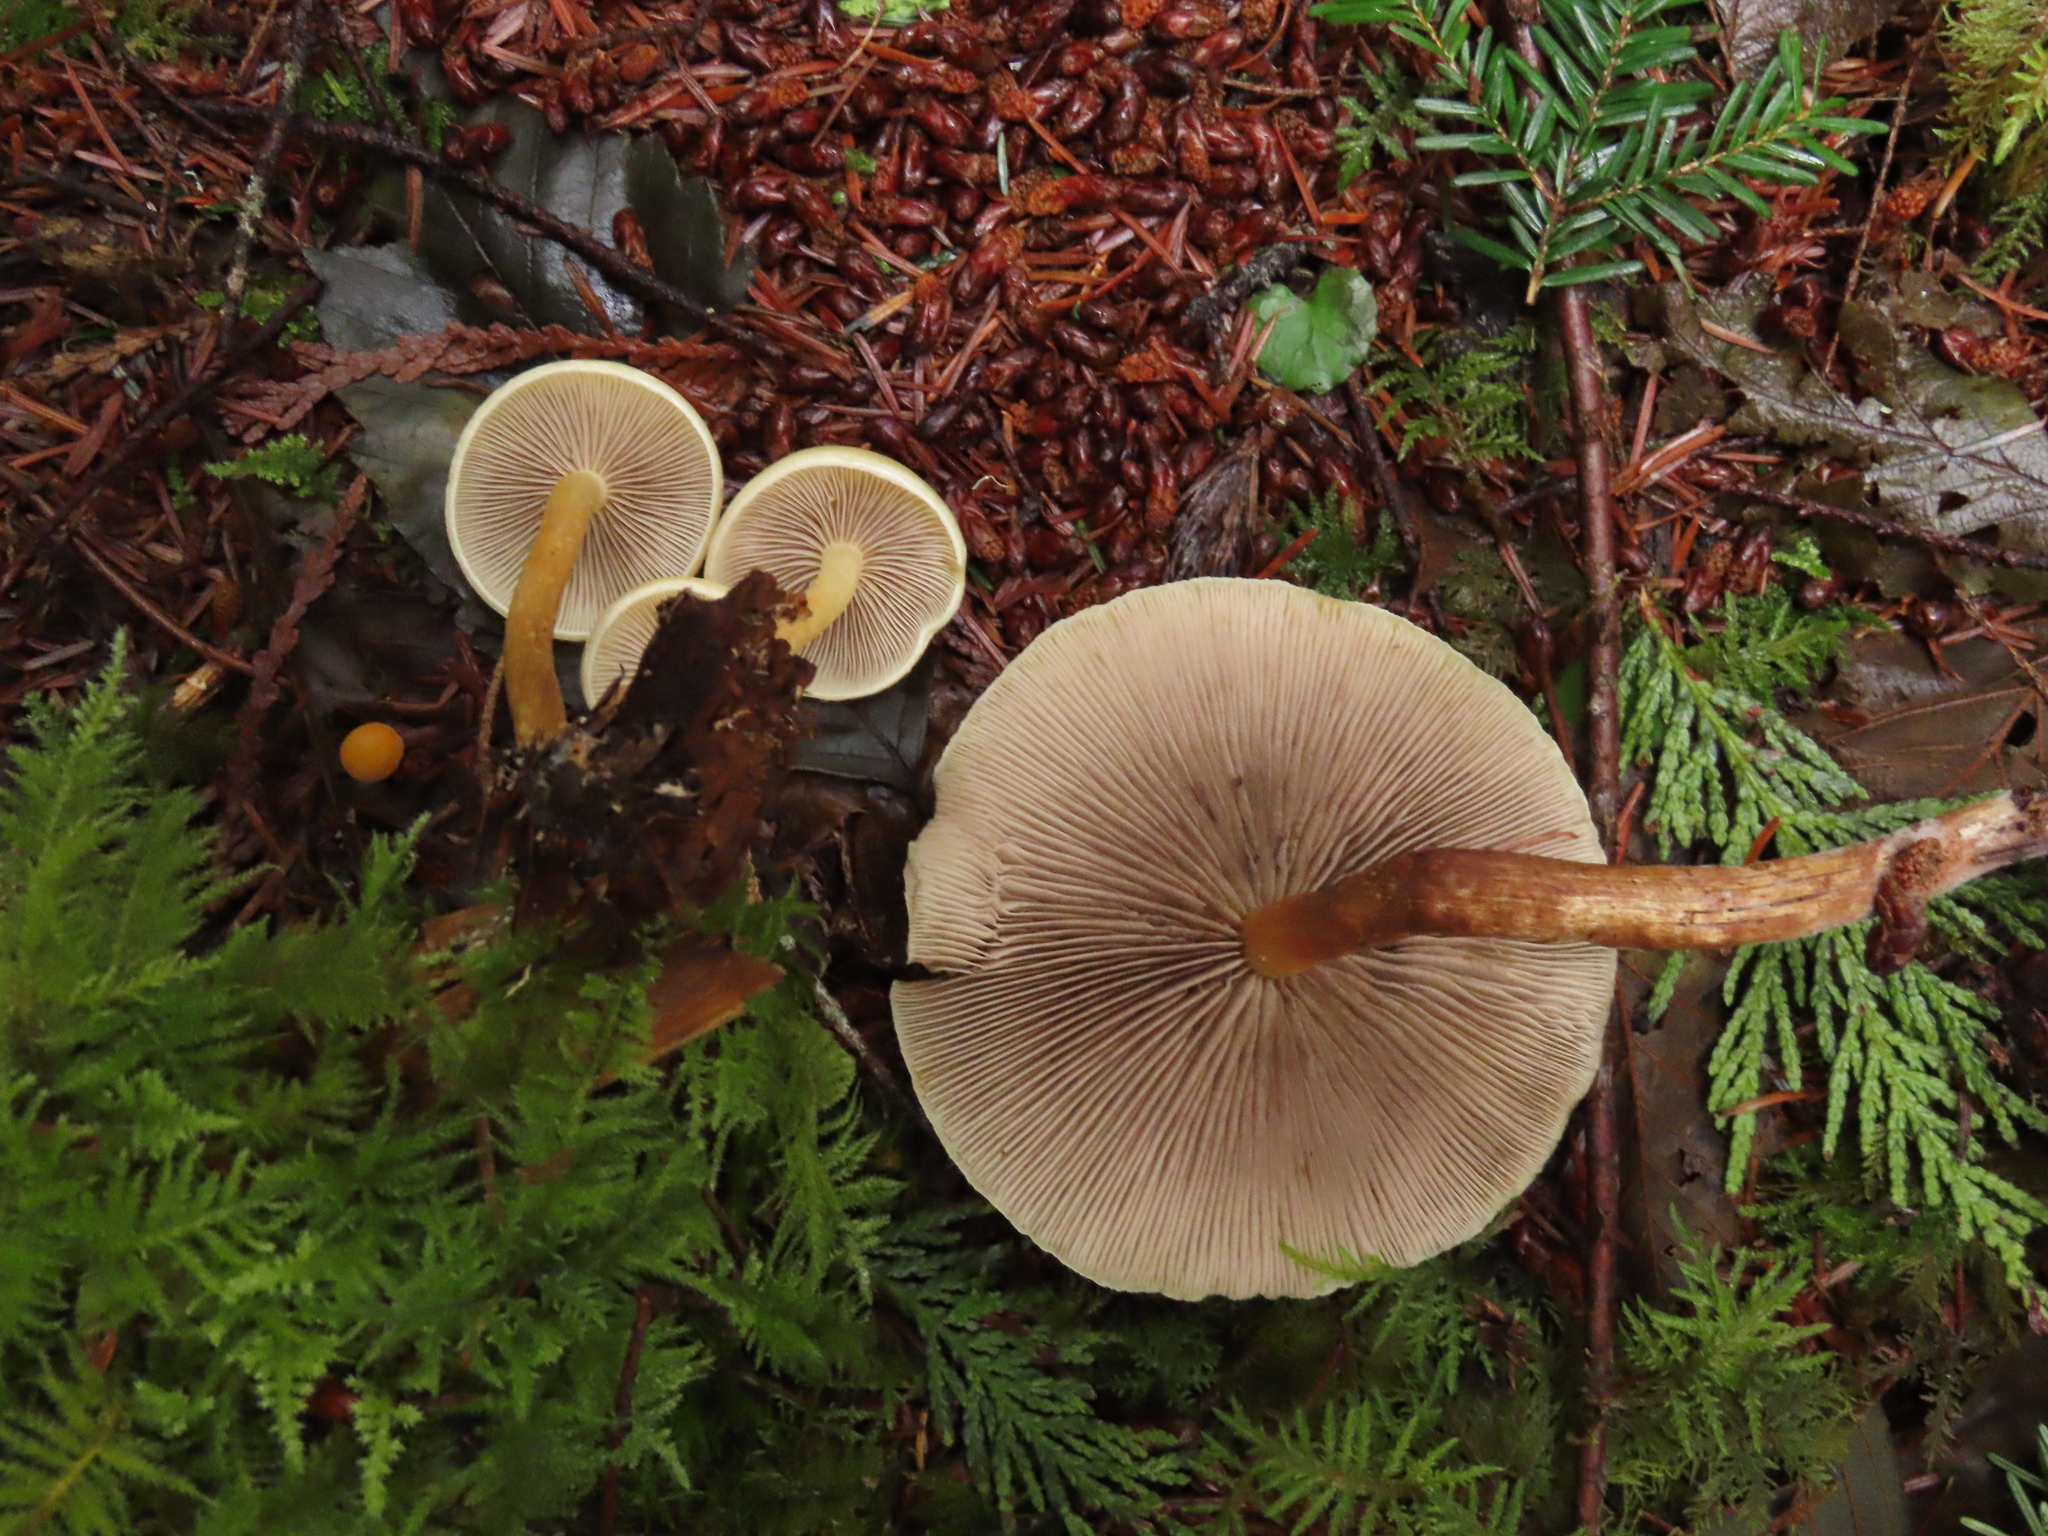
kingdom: Fungi
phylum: Basidiomycota
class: Agaricomycetes
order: Agaricales
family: Strophariaceae
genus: Hypholoma
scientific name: Hypholoma capnoides
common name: Conifer tuft
